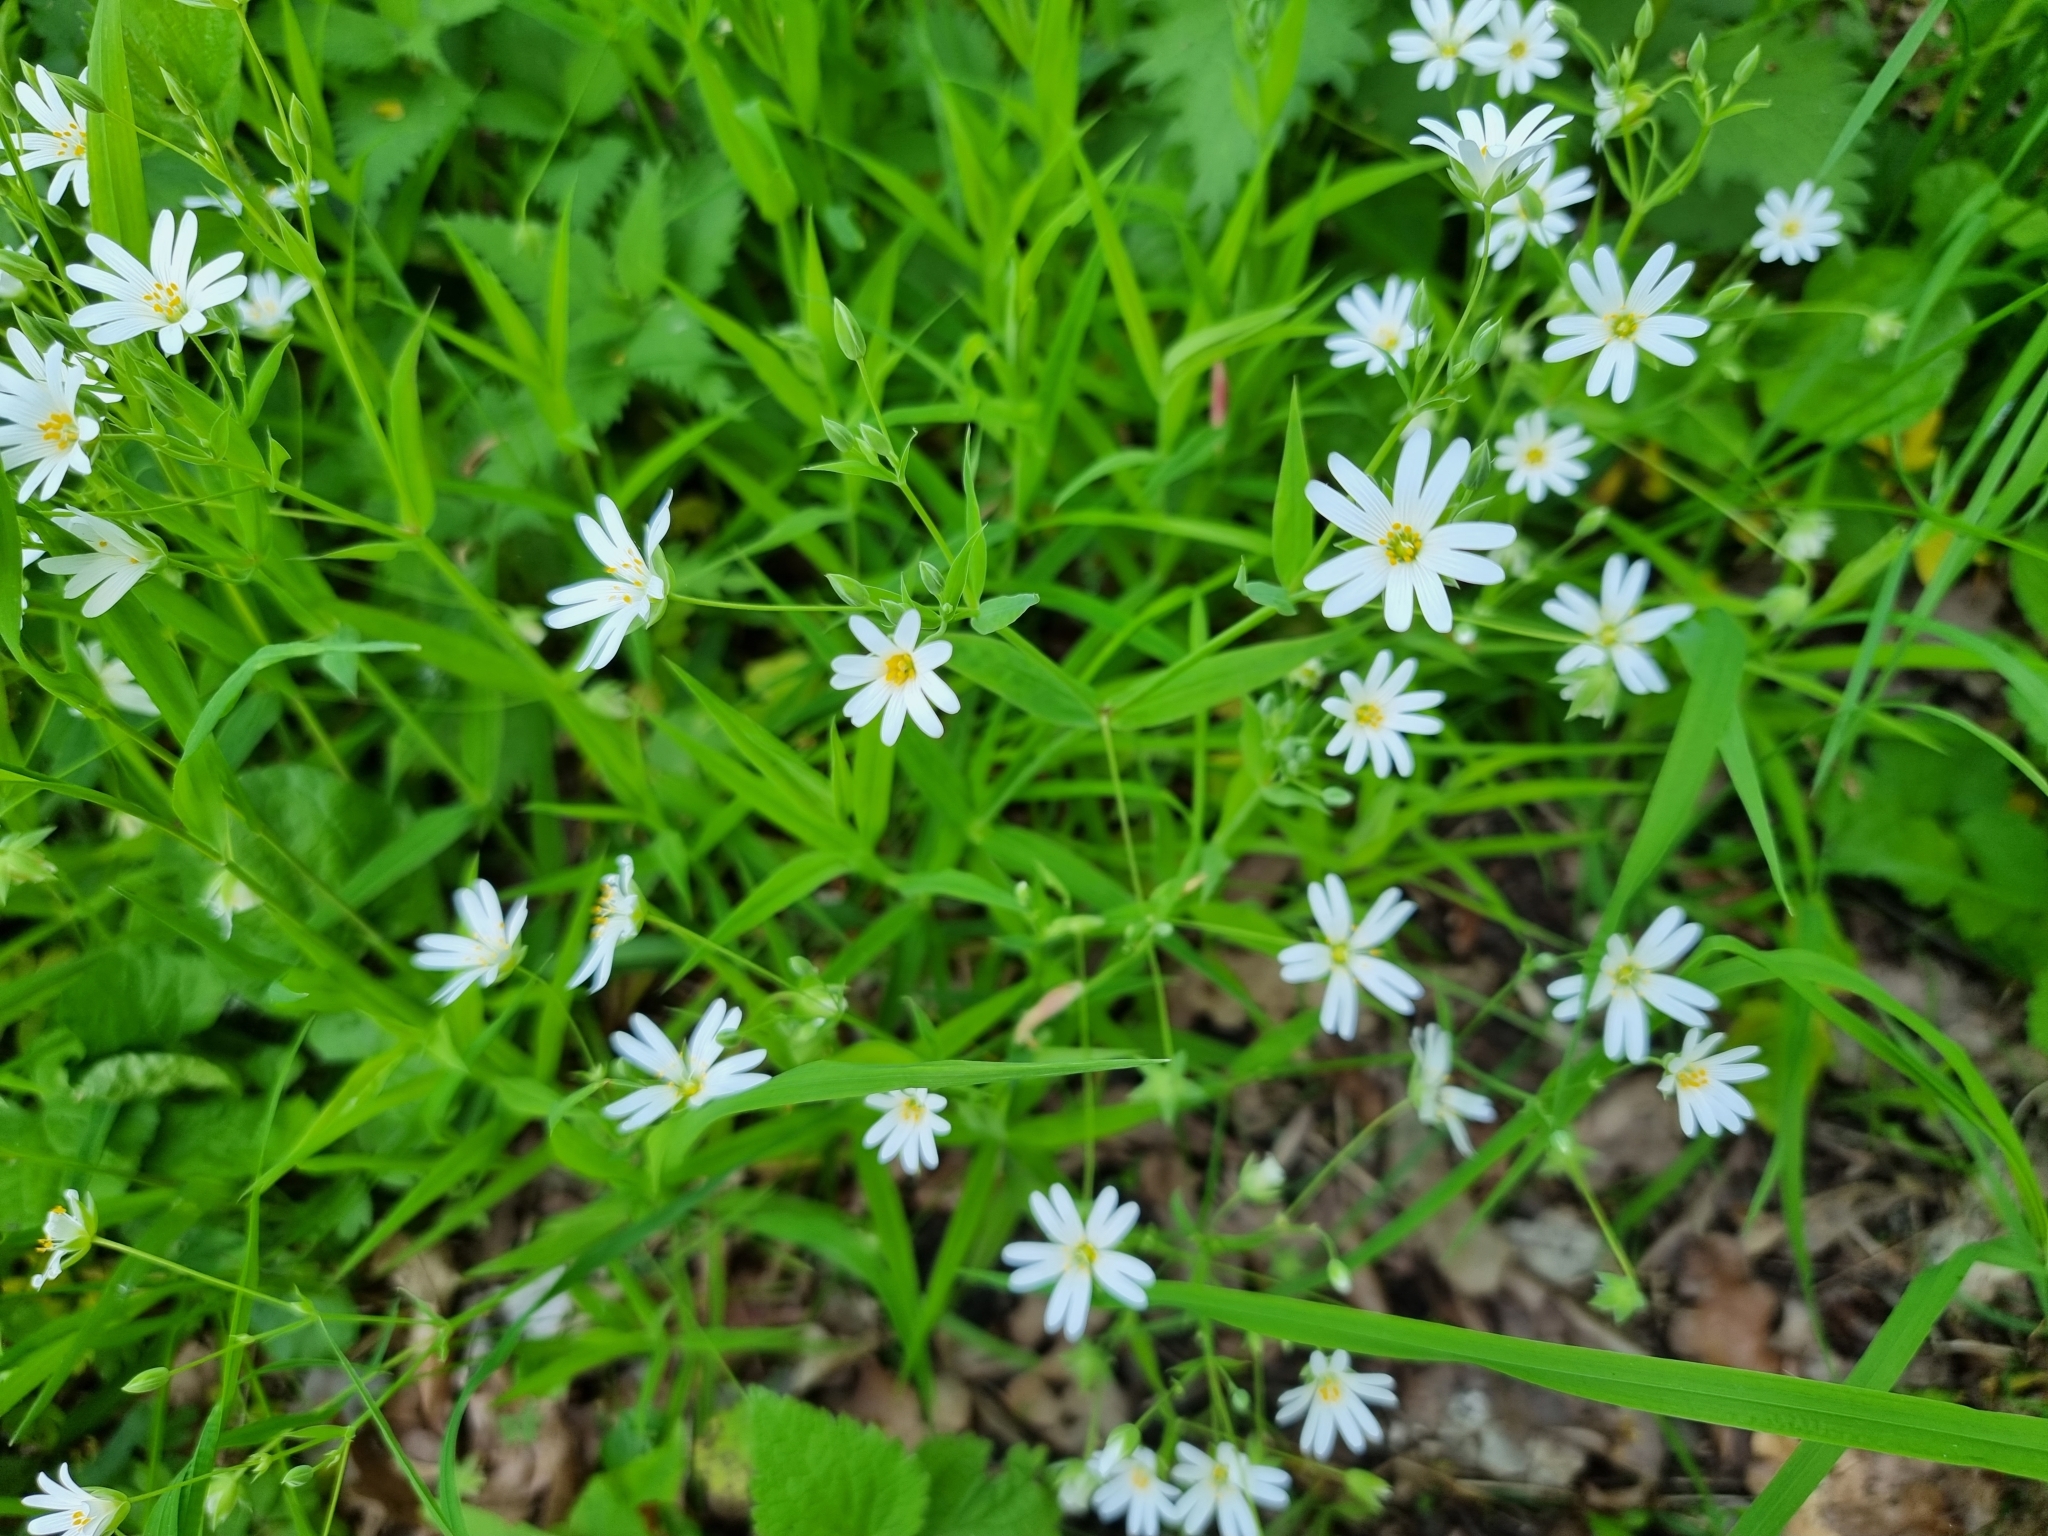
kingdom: Plantae
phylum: Tracheophyta
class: Magnoliopsida
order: Caryophyllales
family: Caryophyllaceae
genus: Rabelera
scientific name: Rabelera holostea
